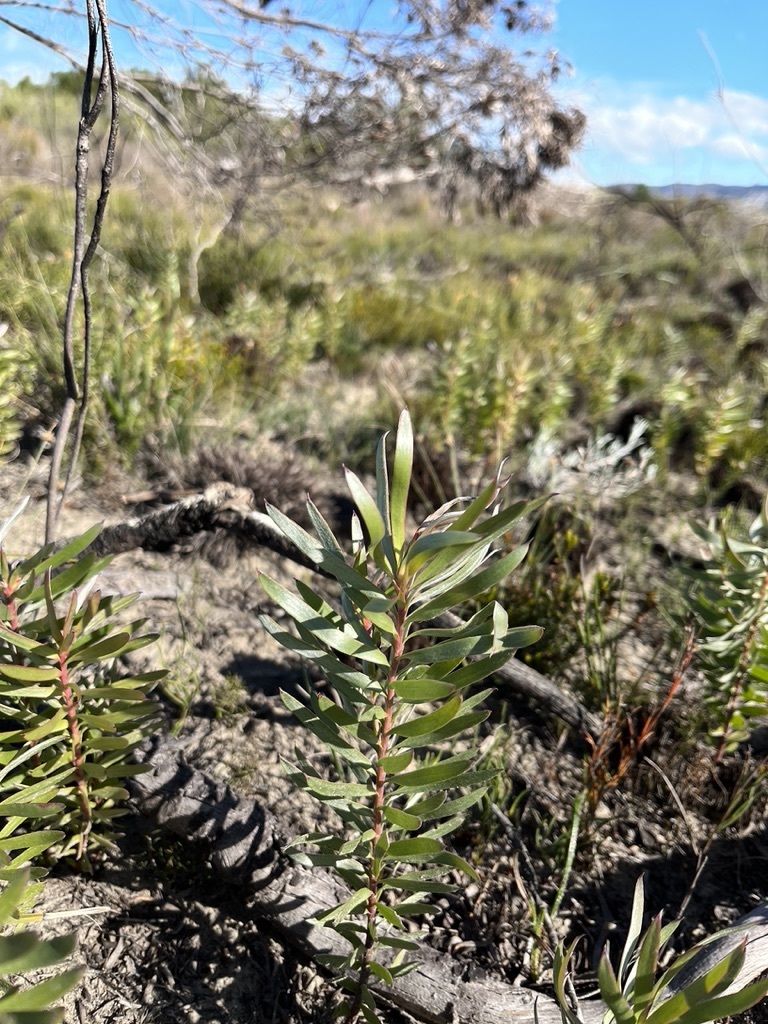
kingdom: Plantae
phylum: Tracheophyta
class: Magnoliopsida
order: Proteales
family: Proteaceae
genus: Leucadendron
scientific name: Leucadendron xanthoconus
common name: Sickle-leaf conebush
